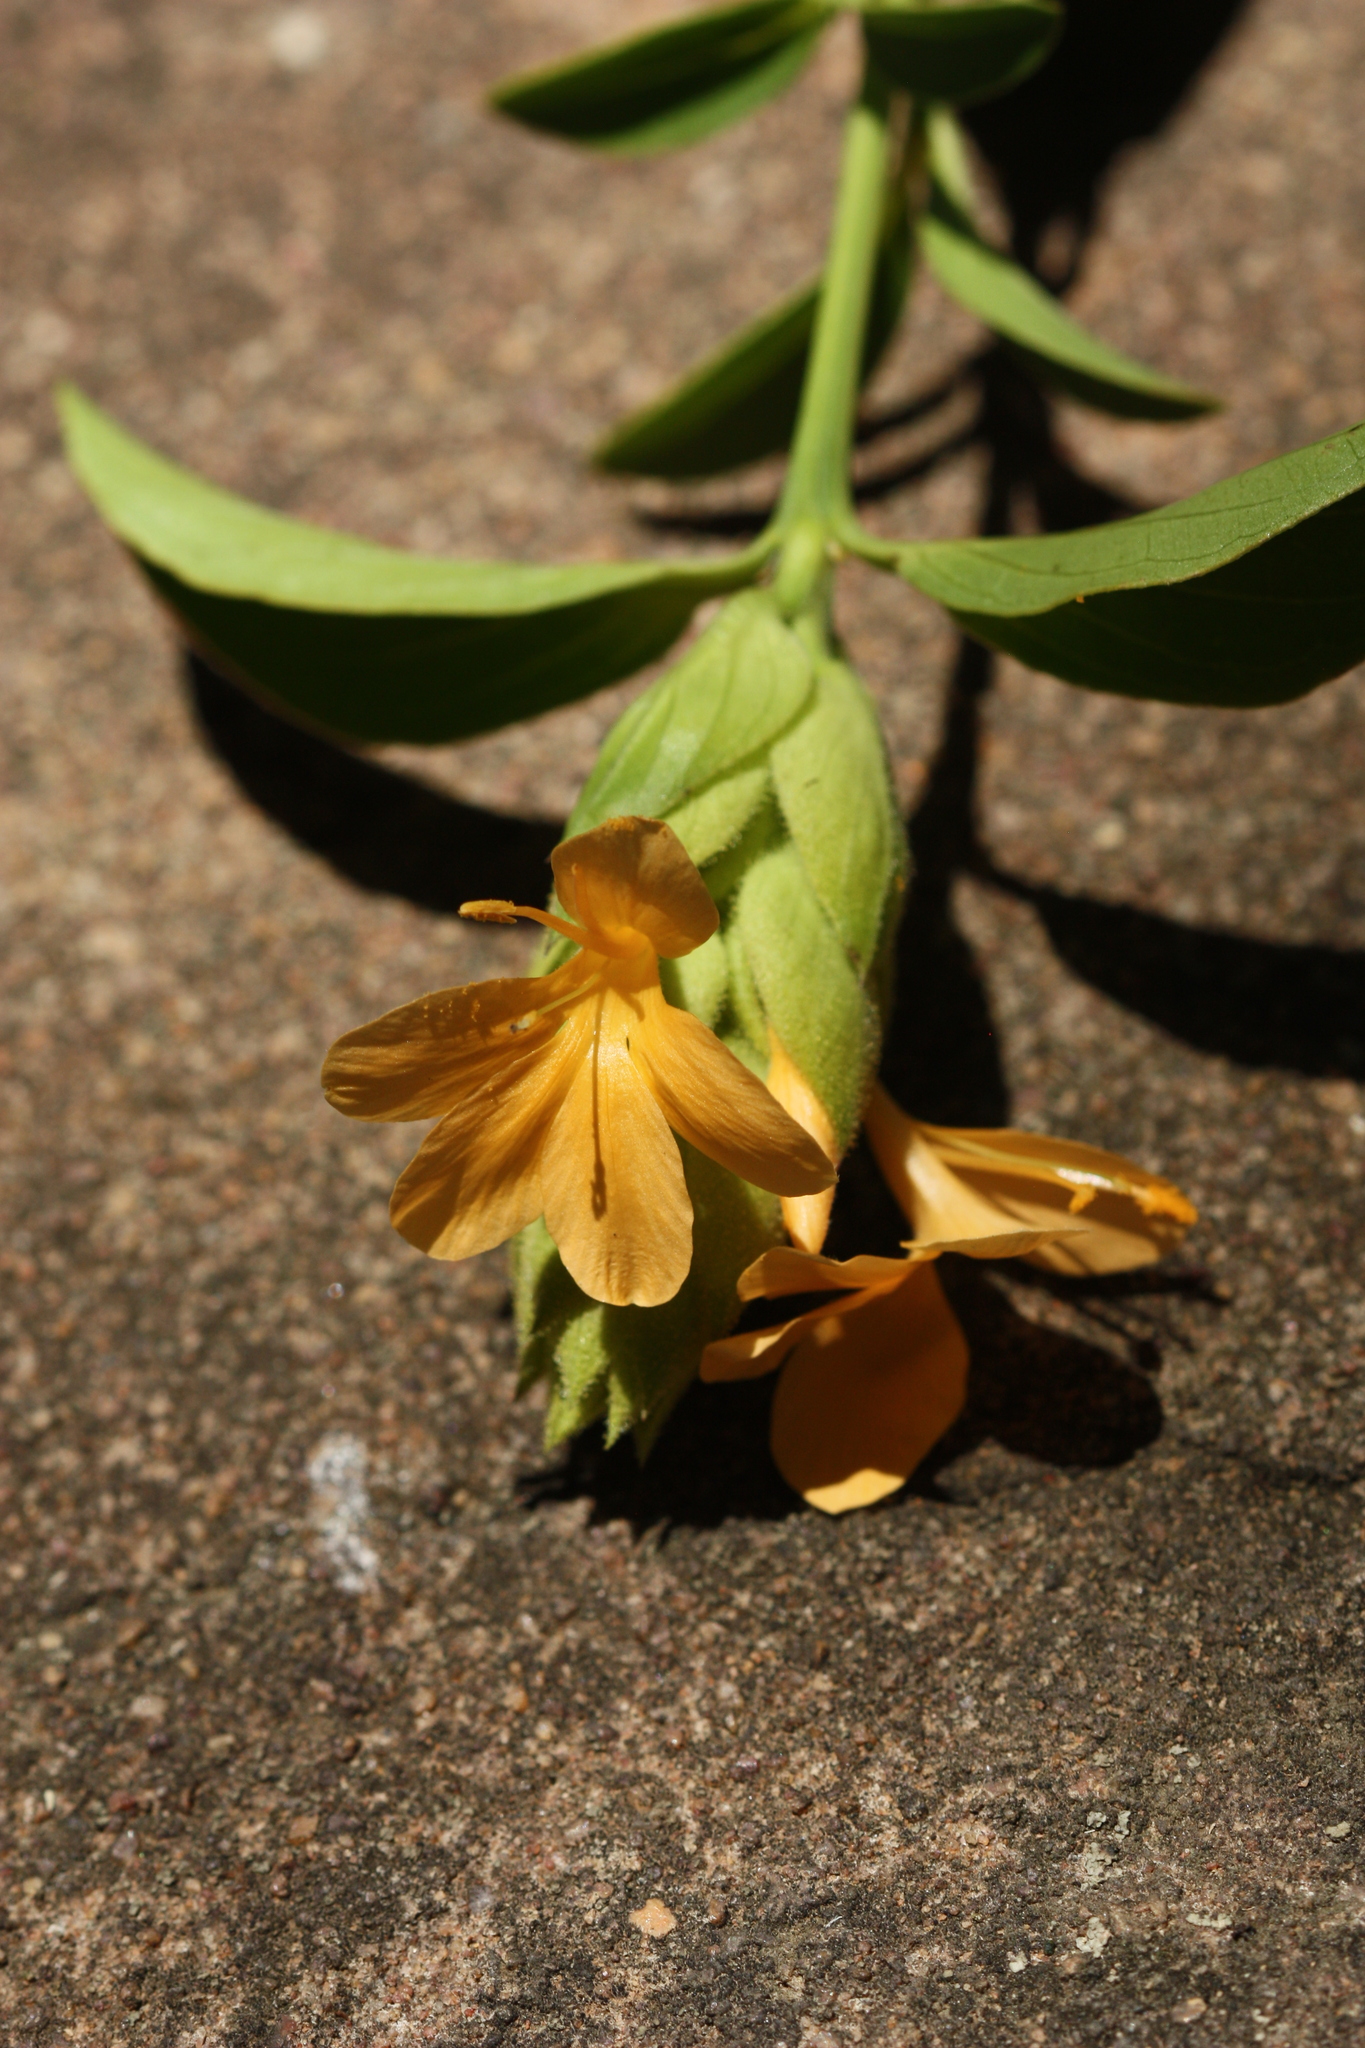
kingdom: Plantae
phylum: Tracheophyta
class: Magnoliopsida
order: Lamiales
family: Acanthaceae
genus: Barleria
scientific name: Barleria crossandriformis
